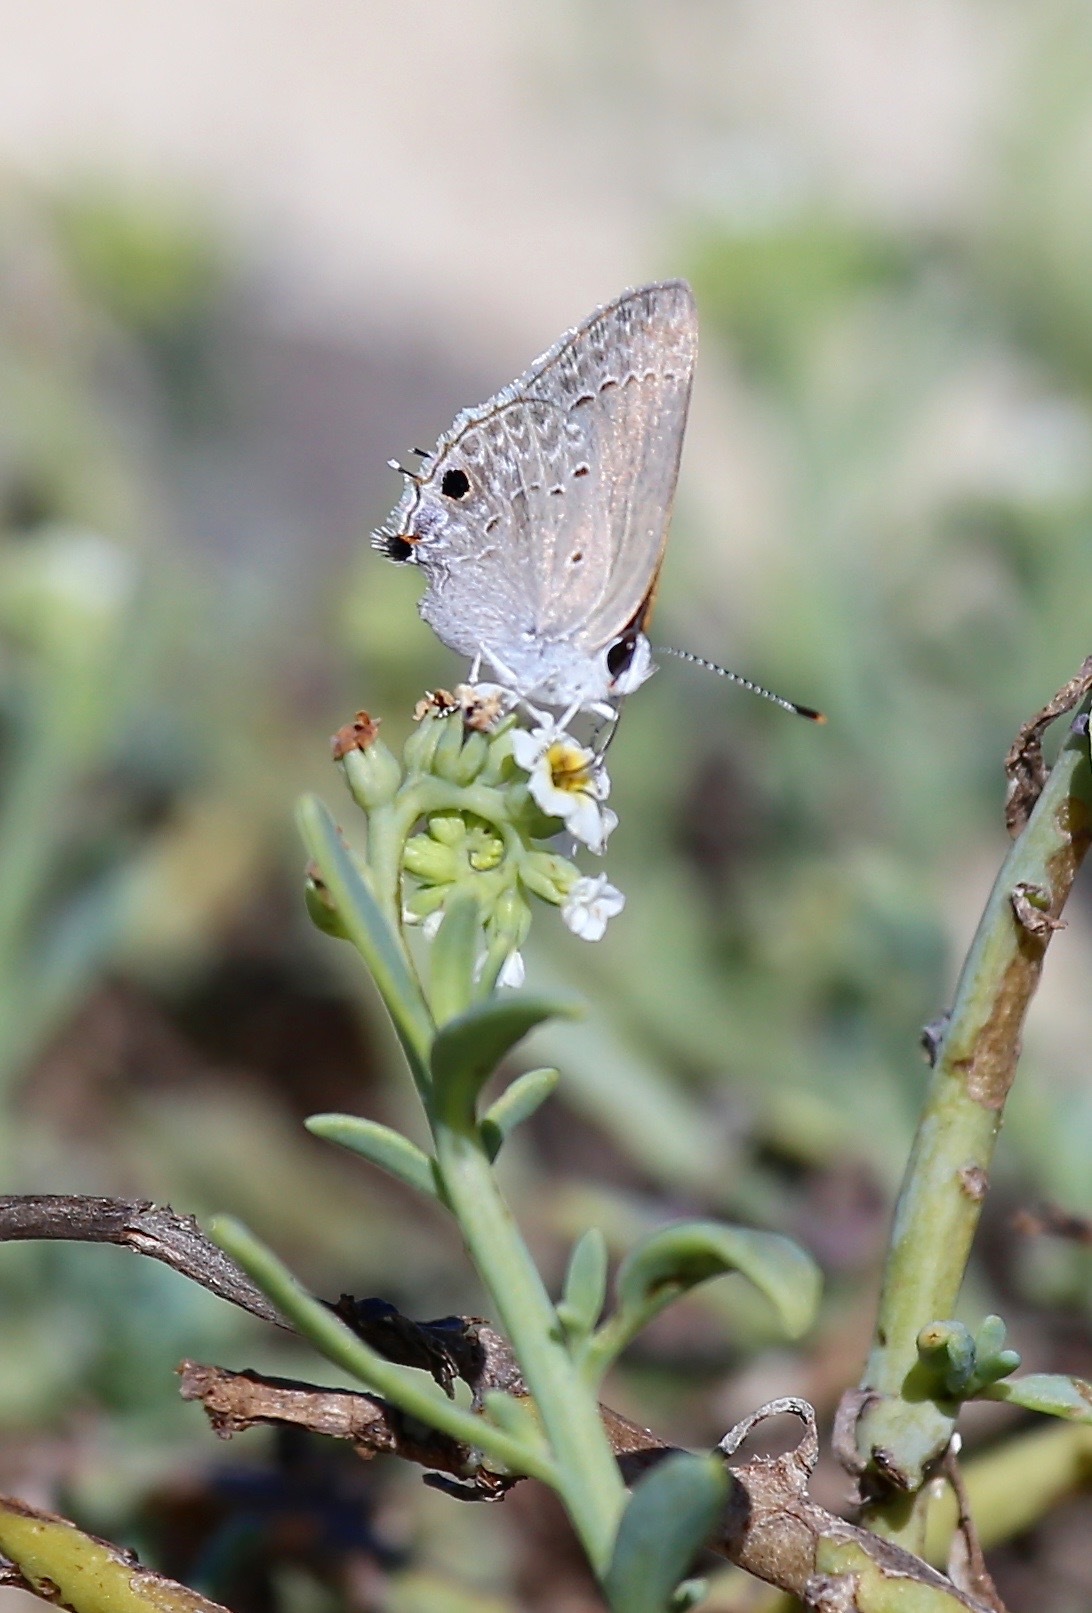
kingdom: Animalia
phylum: Arthropoda
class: Insecta
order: Lepidoptera
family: Lycaenidae
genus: Callicista
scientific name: Callicista columella
